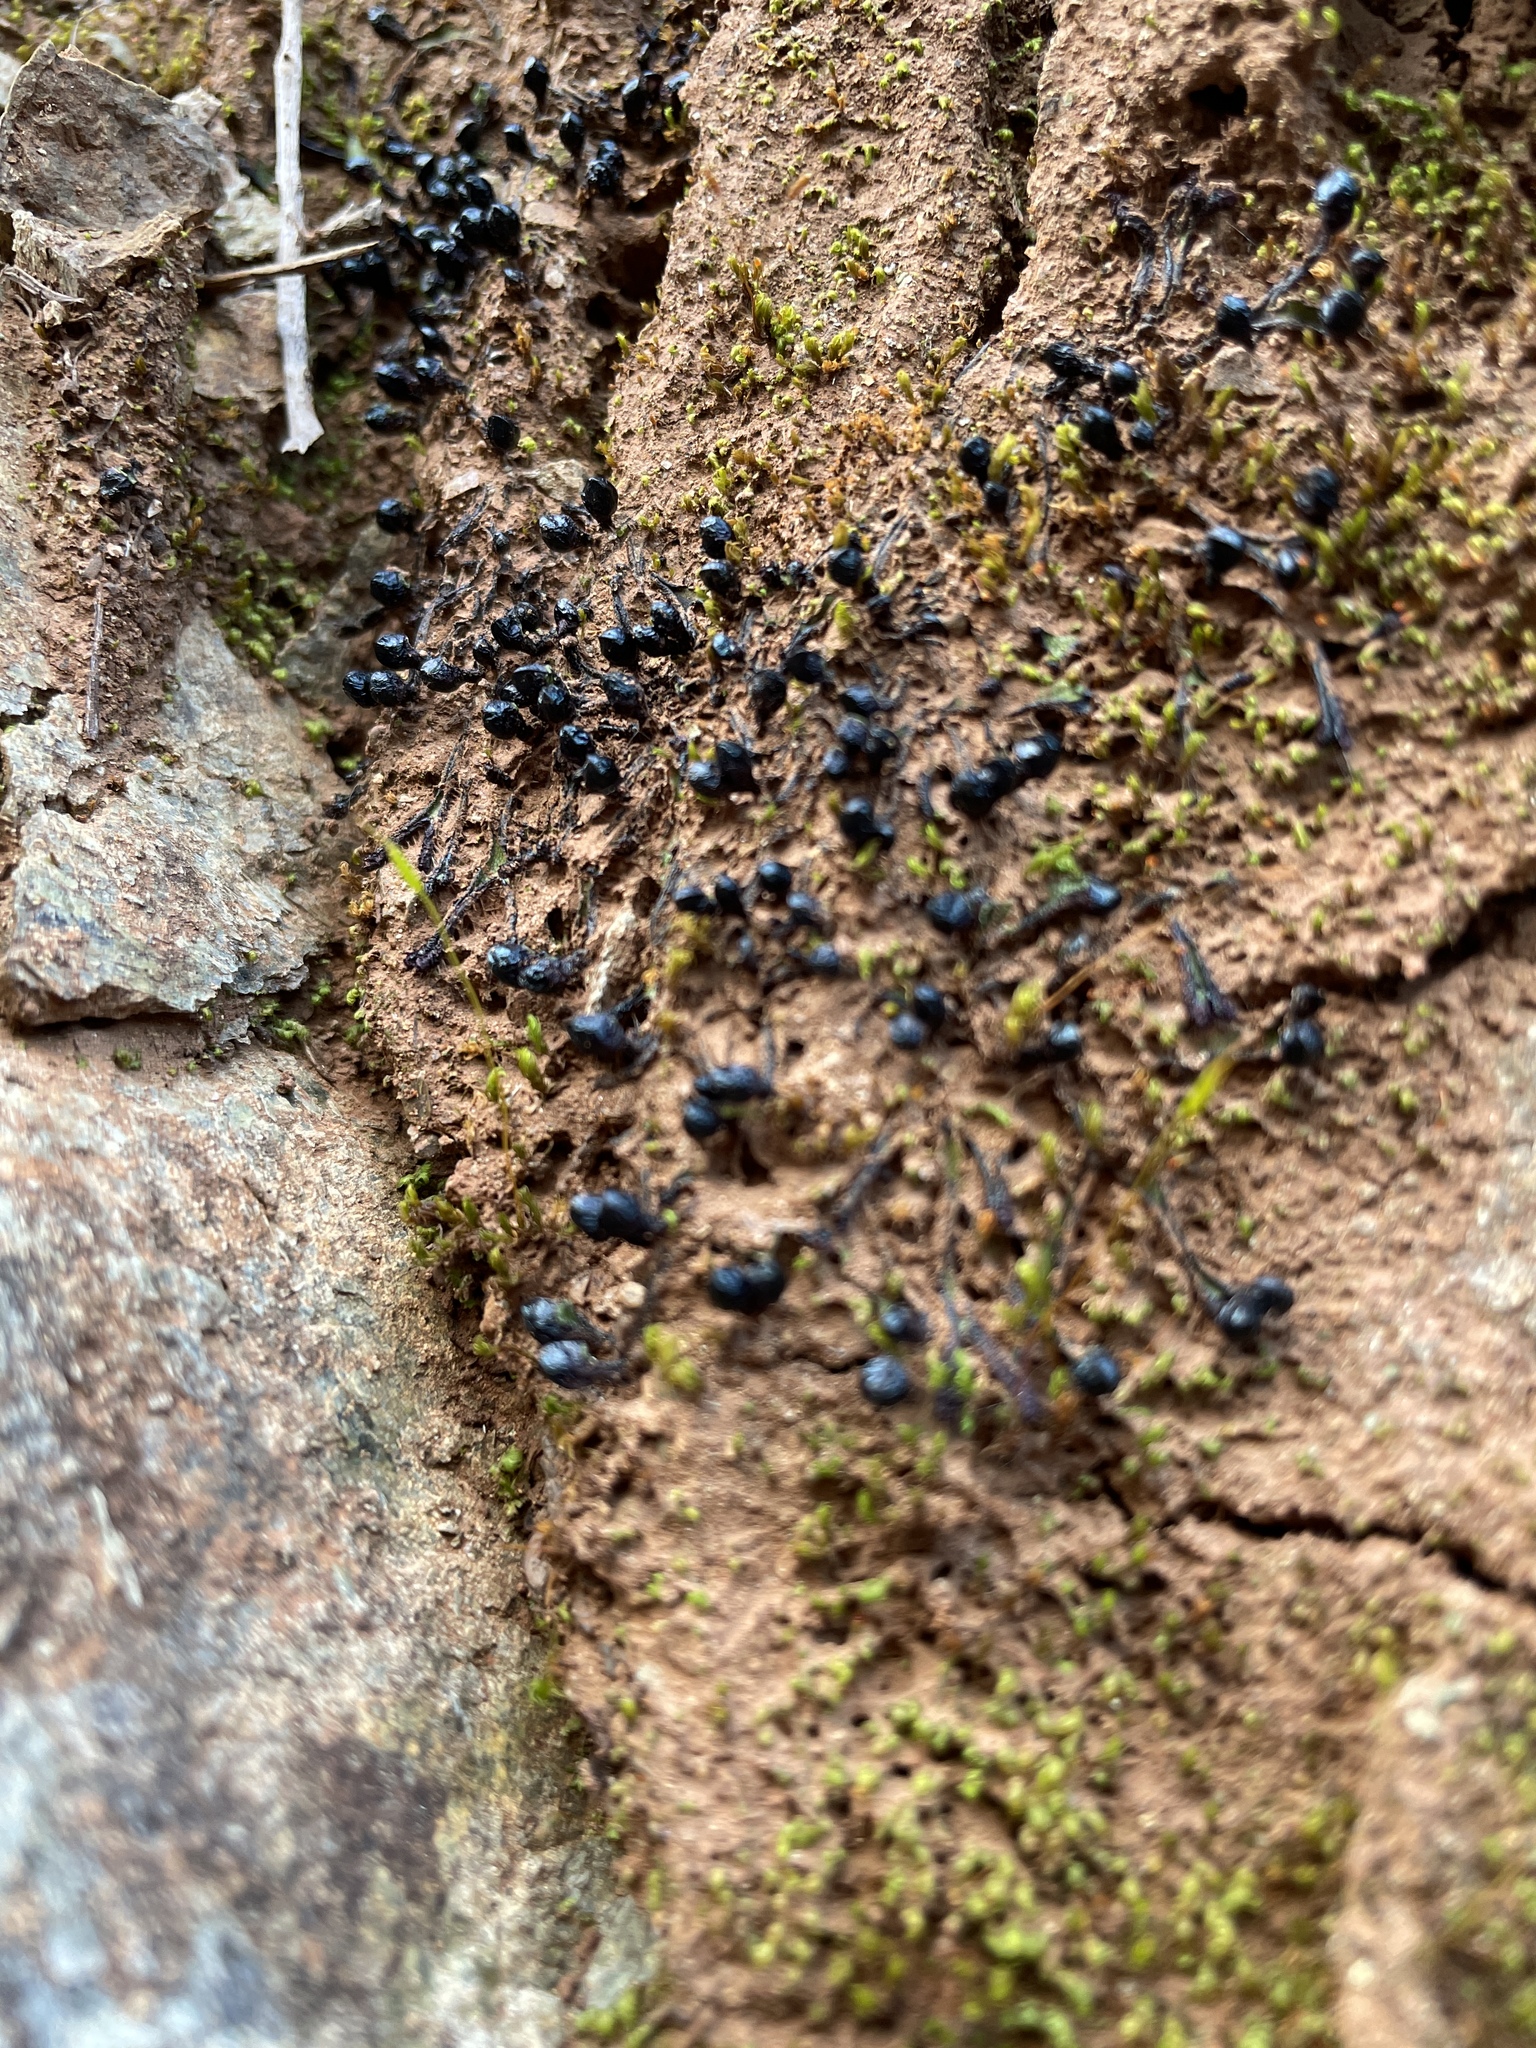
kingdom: Plantae
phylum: Marchantiophyta
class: Marchantiopsida
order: Marchantiales
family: Targioniaceae
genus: Targionia
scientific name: Targionia hypophylla
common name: Orobus-seed liverwort
